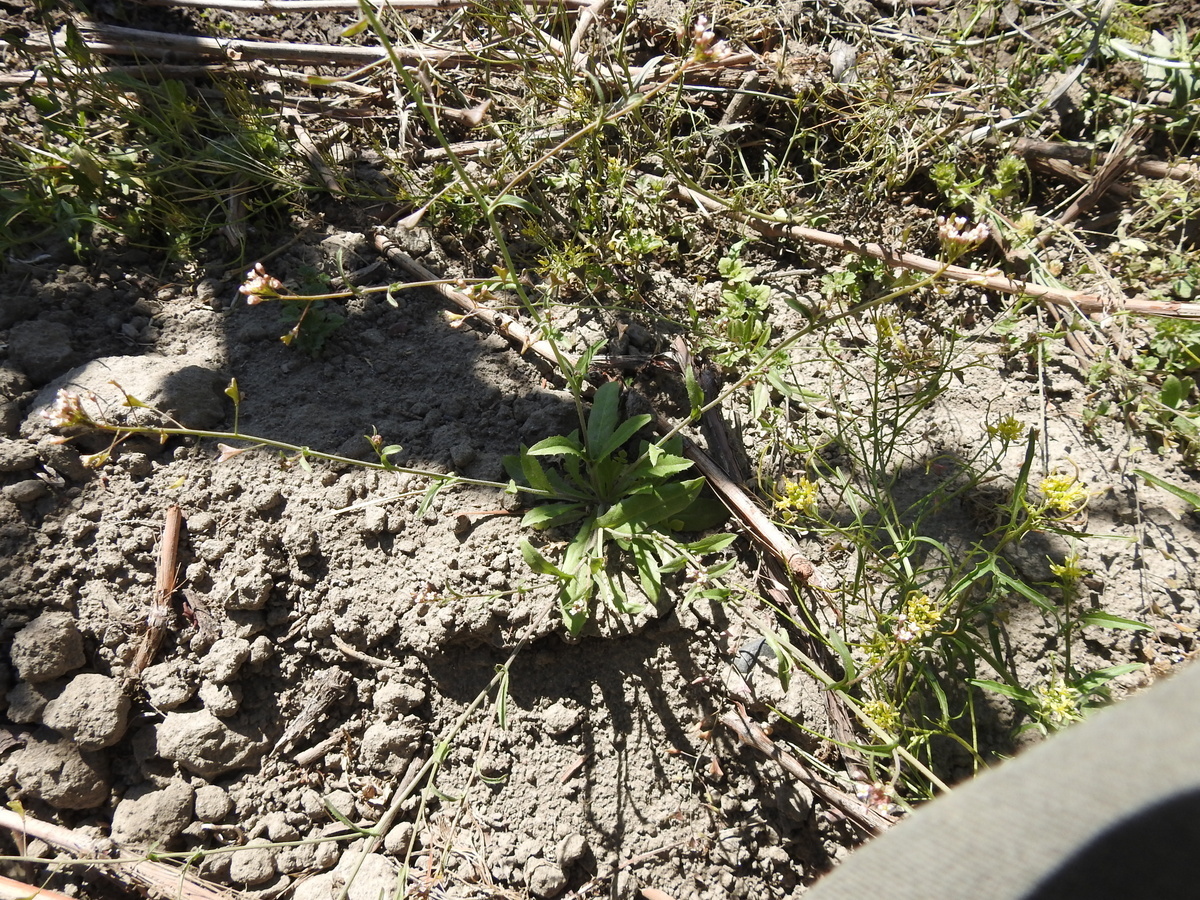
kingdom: Plantae
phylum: Tracheophyta
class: Magnoliopsida
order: Brassicales
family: Brassicaceae
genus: Capsella
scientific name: Capsella bursa-pastoris
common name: Shepherd's purse
